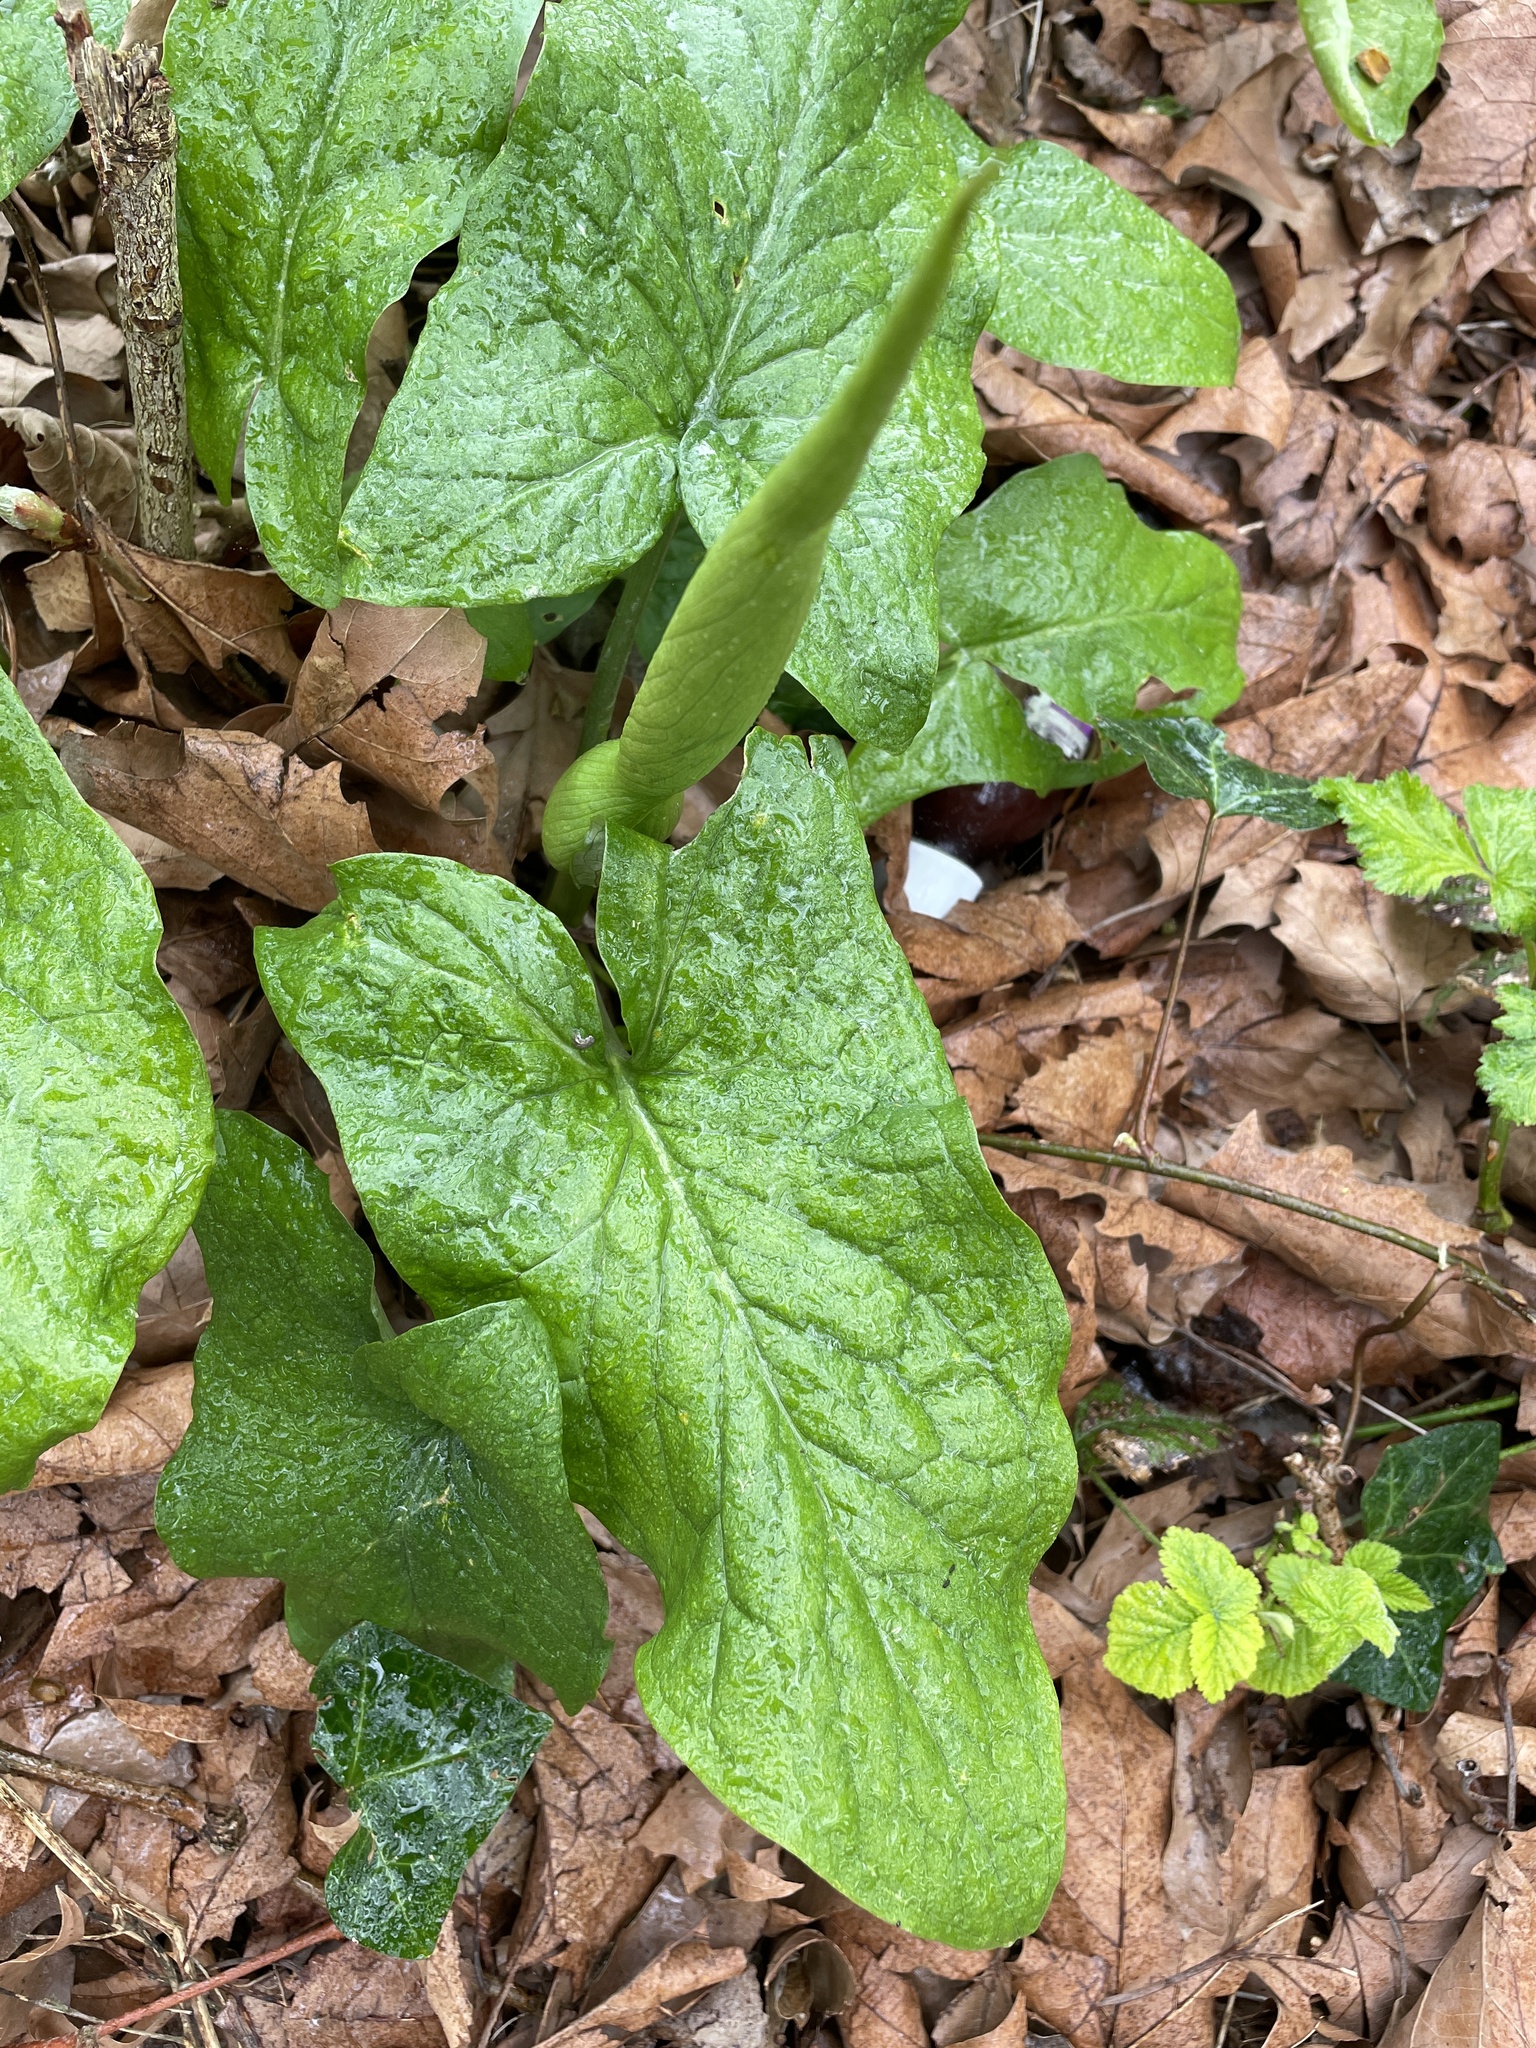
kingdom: Plantae
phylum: Tracheophyta
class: Liliopsida
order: Alismatales
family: Araceae
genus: Arum
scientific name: Arum maculatum
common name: Lords-and-ladies
